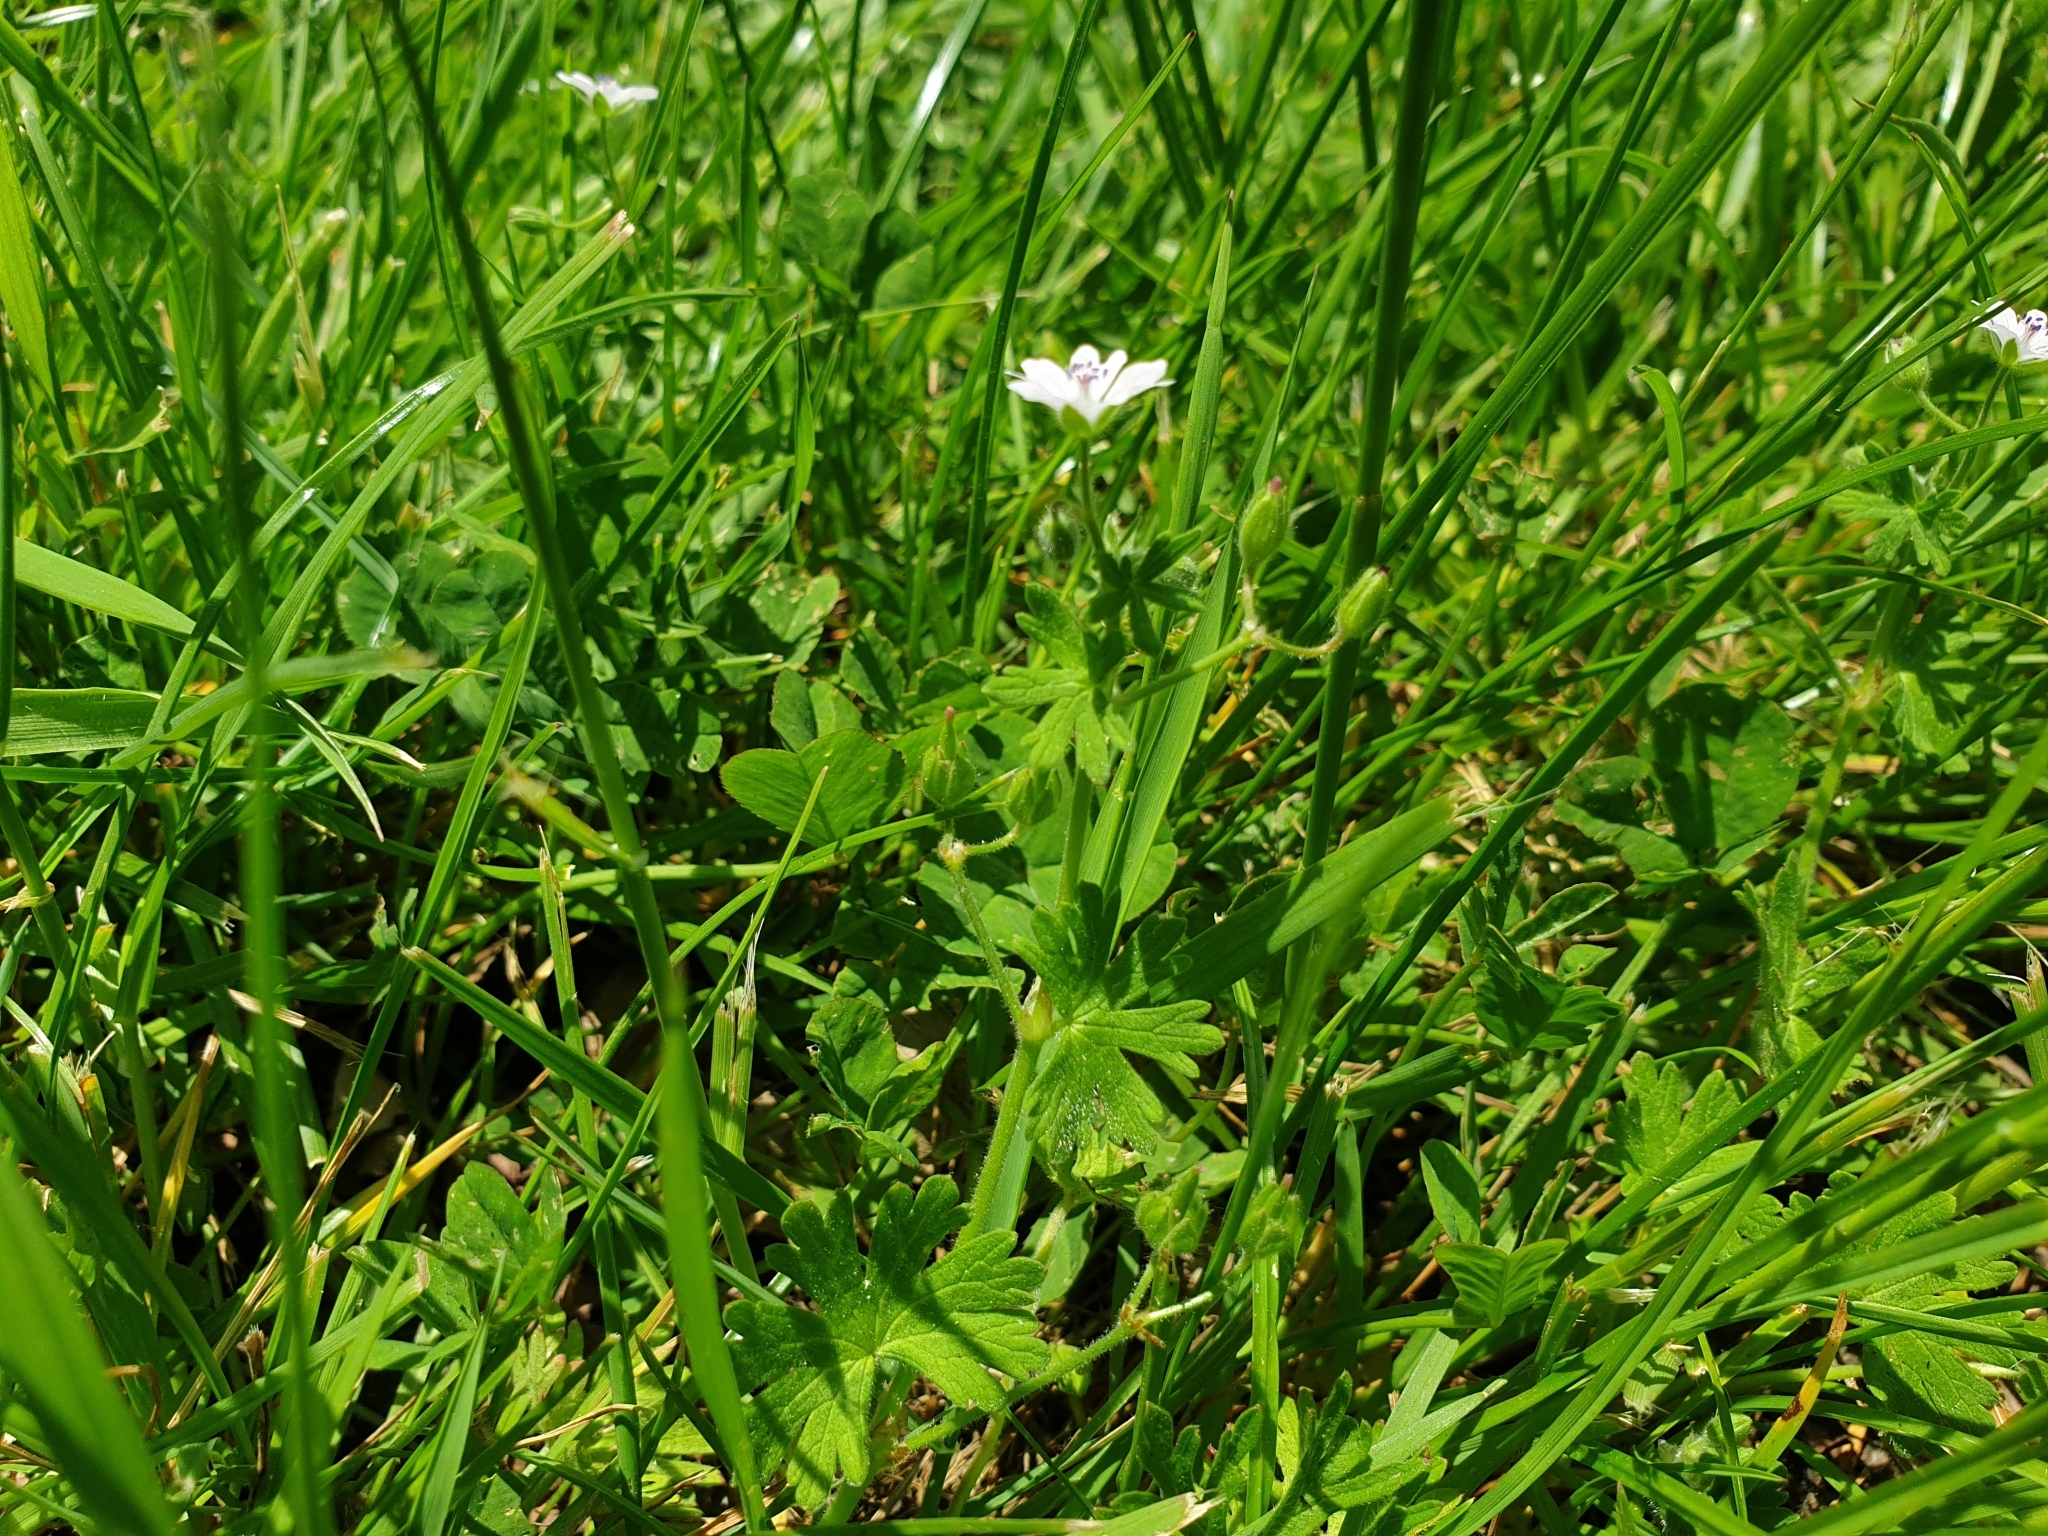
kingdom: Plantae
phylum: Tracheophyta
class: Magnoliopsida
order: Geraniales
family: Geraniaceae
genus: Geranium
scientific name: Geranium molle
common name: Dove's-foot crane's-bill
